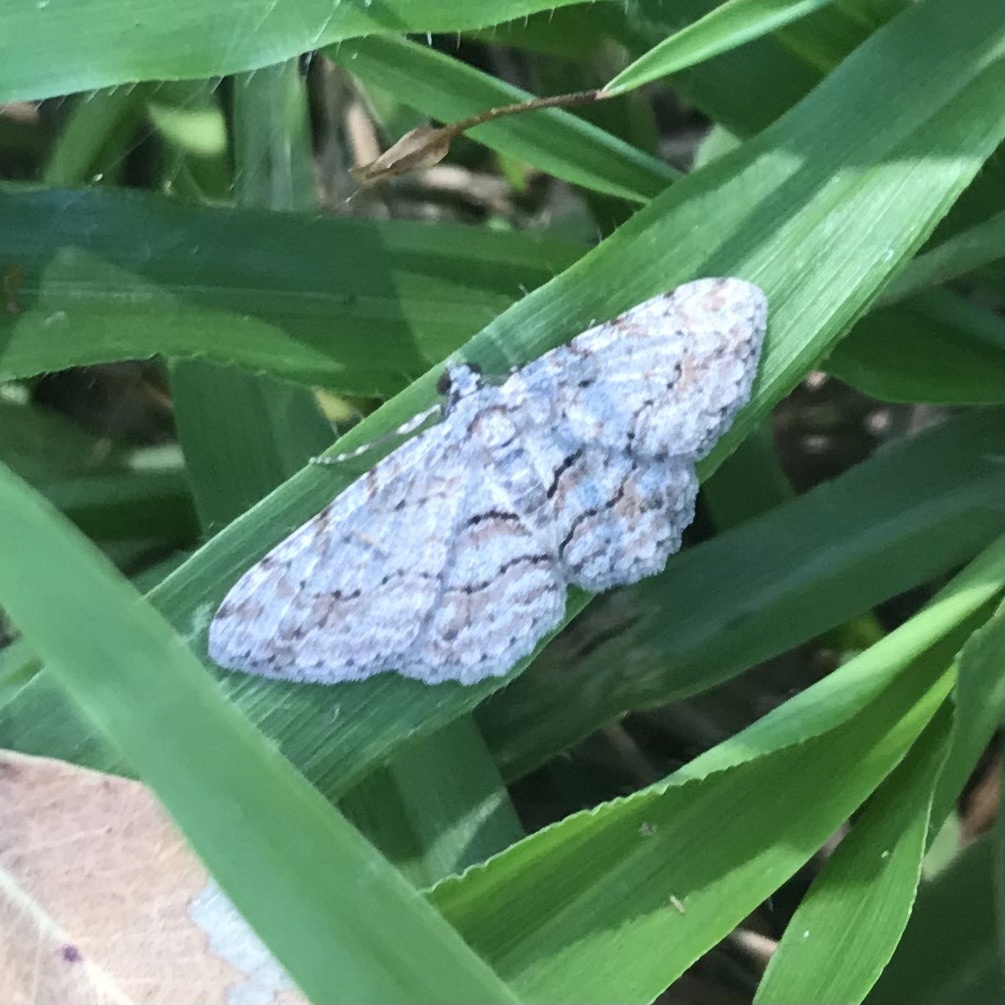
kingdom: Animalia
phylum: Arthropoda
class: Insecta
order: Lepidoptera
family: Geometridae
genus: Didymoctenia
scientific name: Didymoctenia exsuperata
